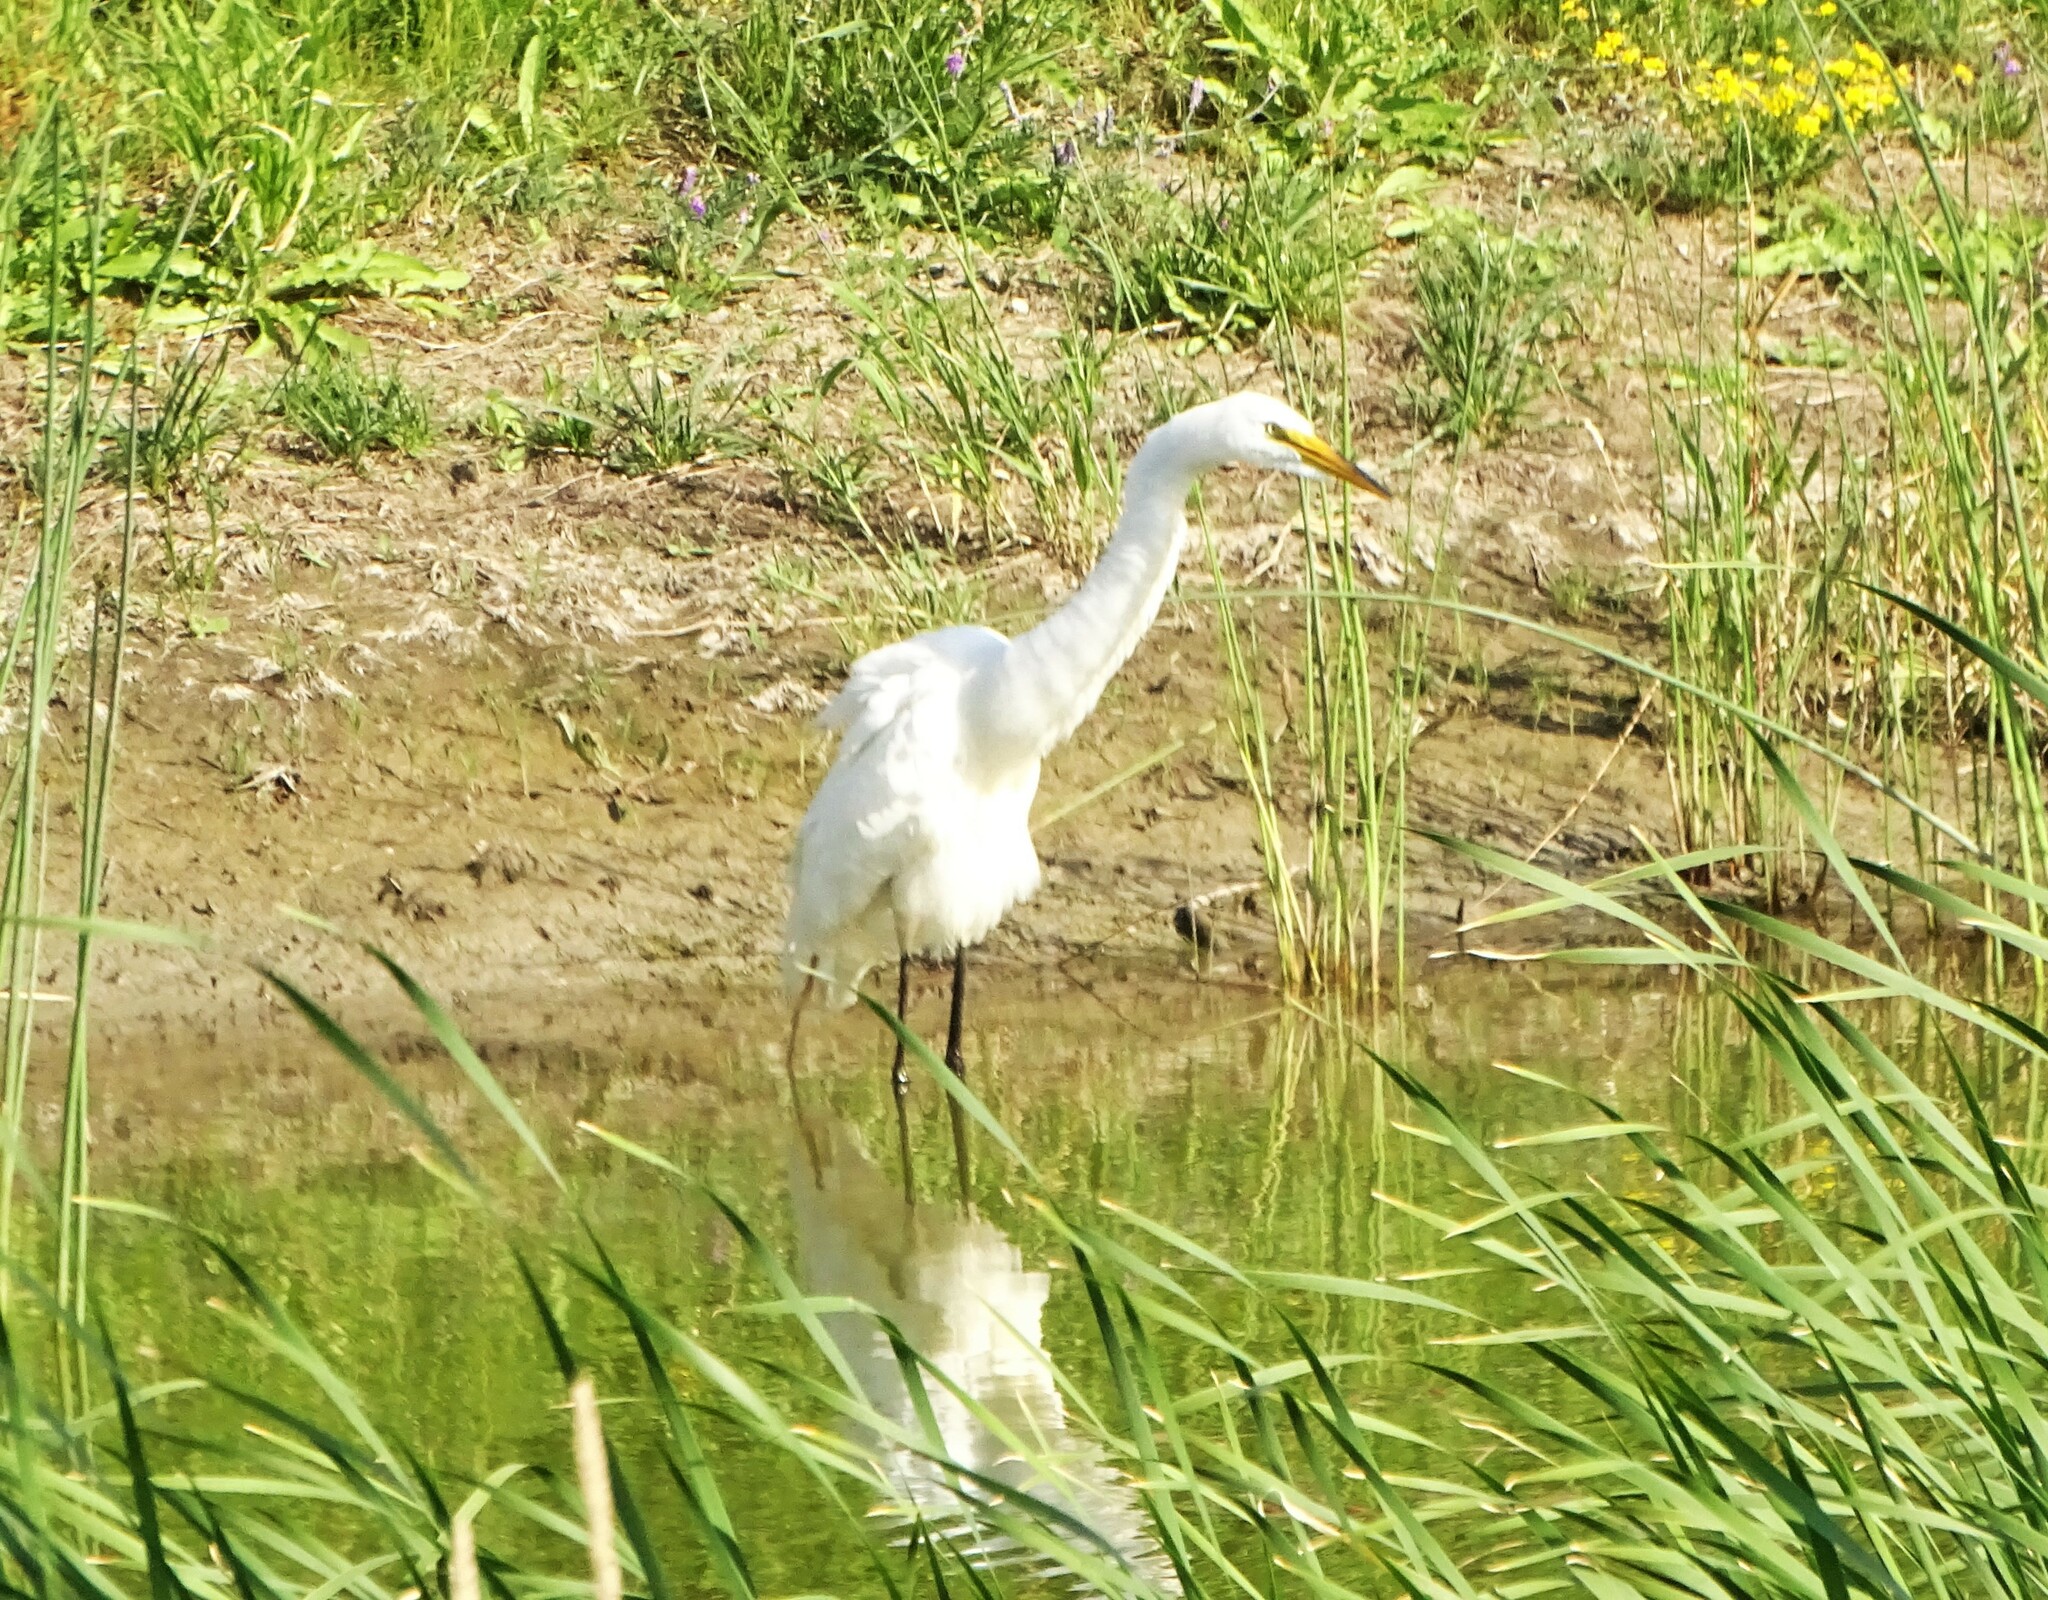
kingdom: Animalia
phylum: Chordata
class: Aves
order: Pelecaniformes
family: Ardeidae
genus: Ardea
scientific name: Ardea alba
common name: Great egret
